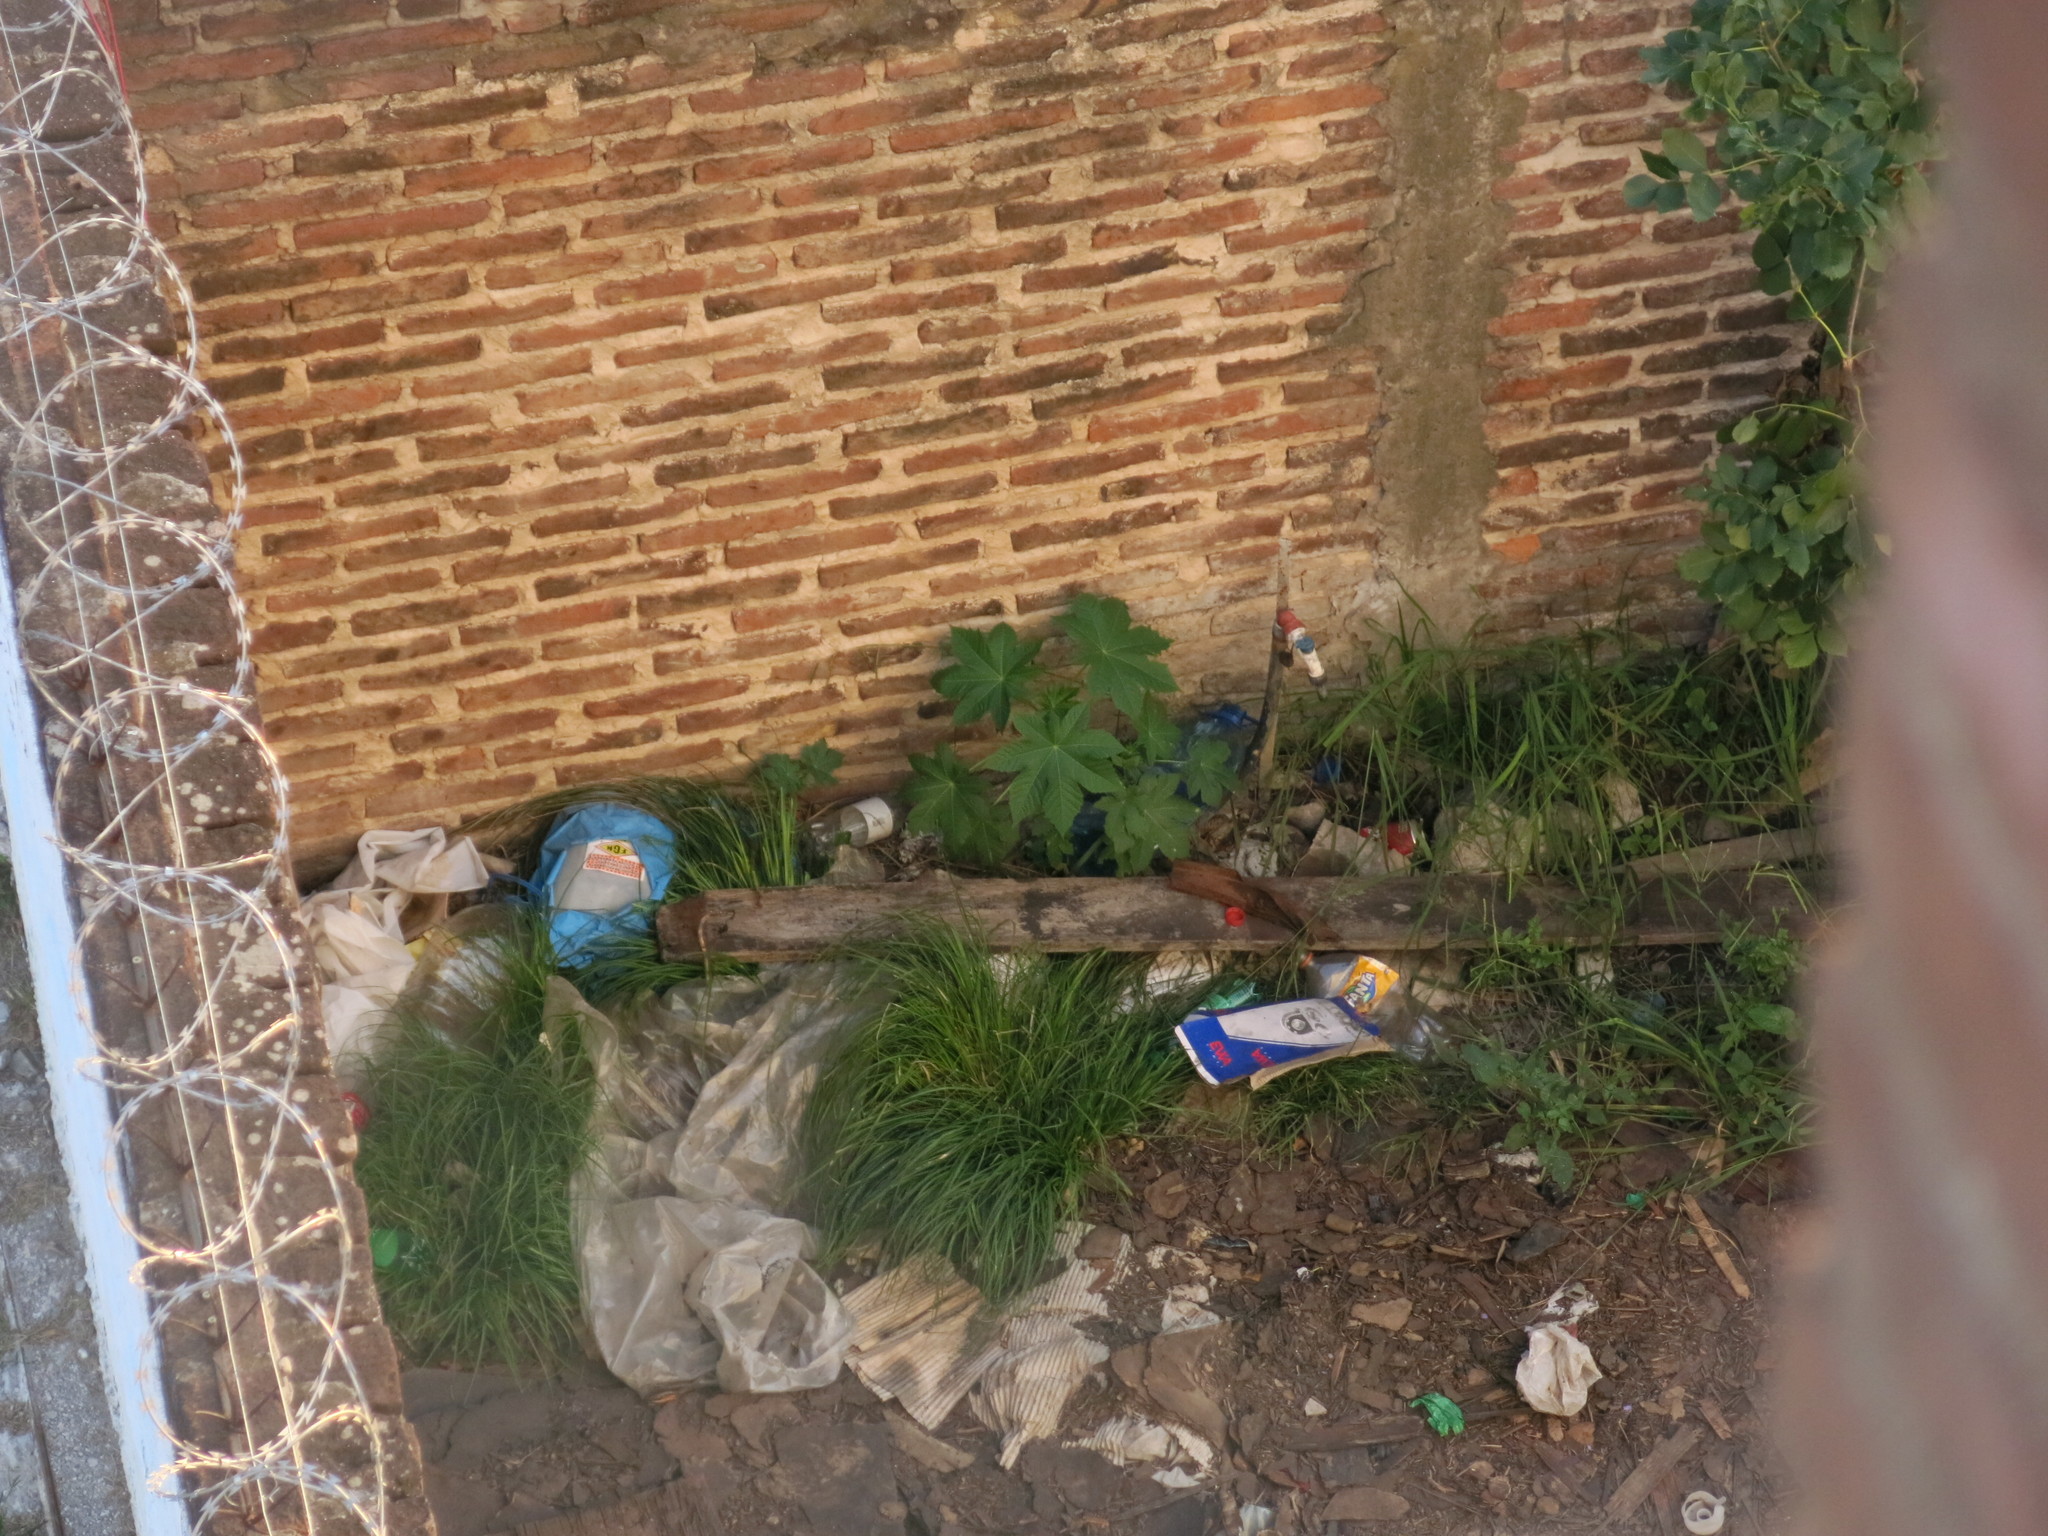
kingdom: Plantae
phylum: Tracheophyta
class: Magnoliopsida
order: Malpighiales
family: Euphorbiaceae
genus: Ricinus
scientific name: Ricinus communis
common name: Castor-oil-plant
